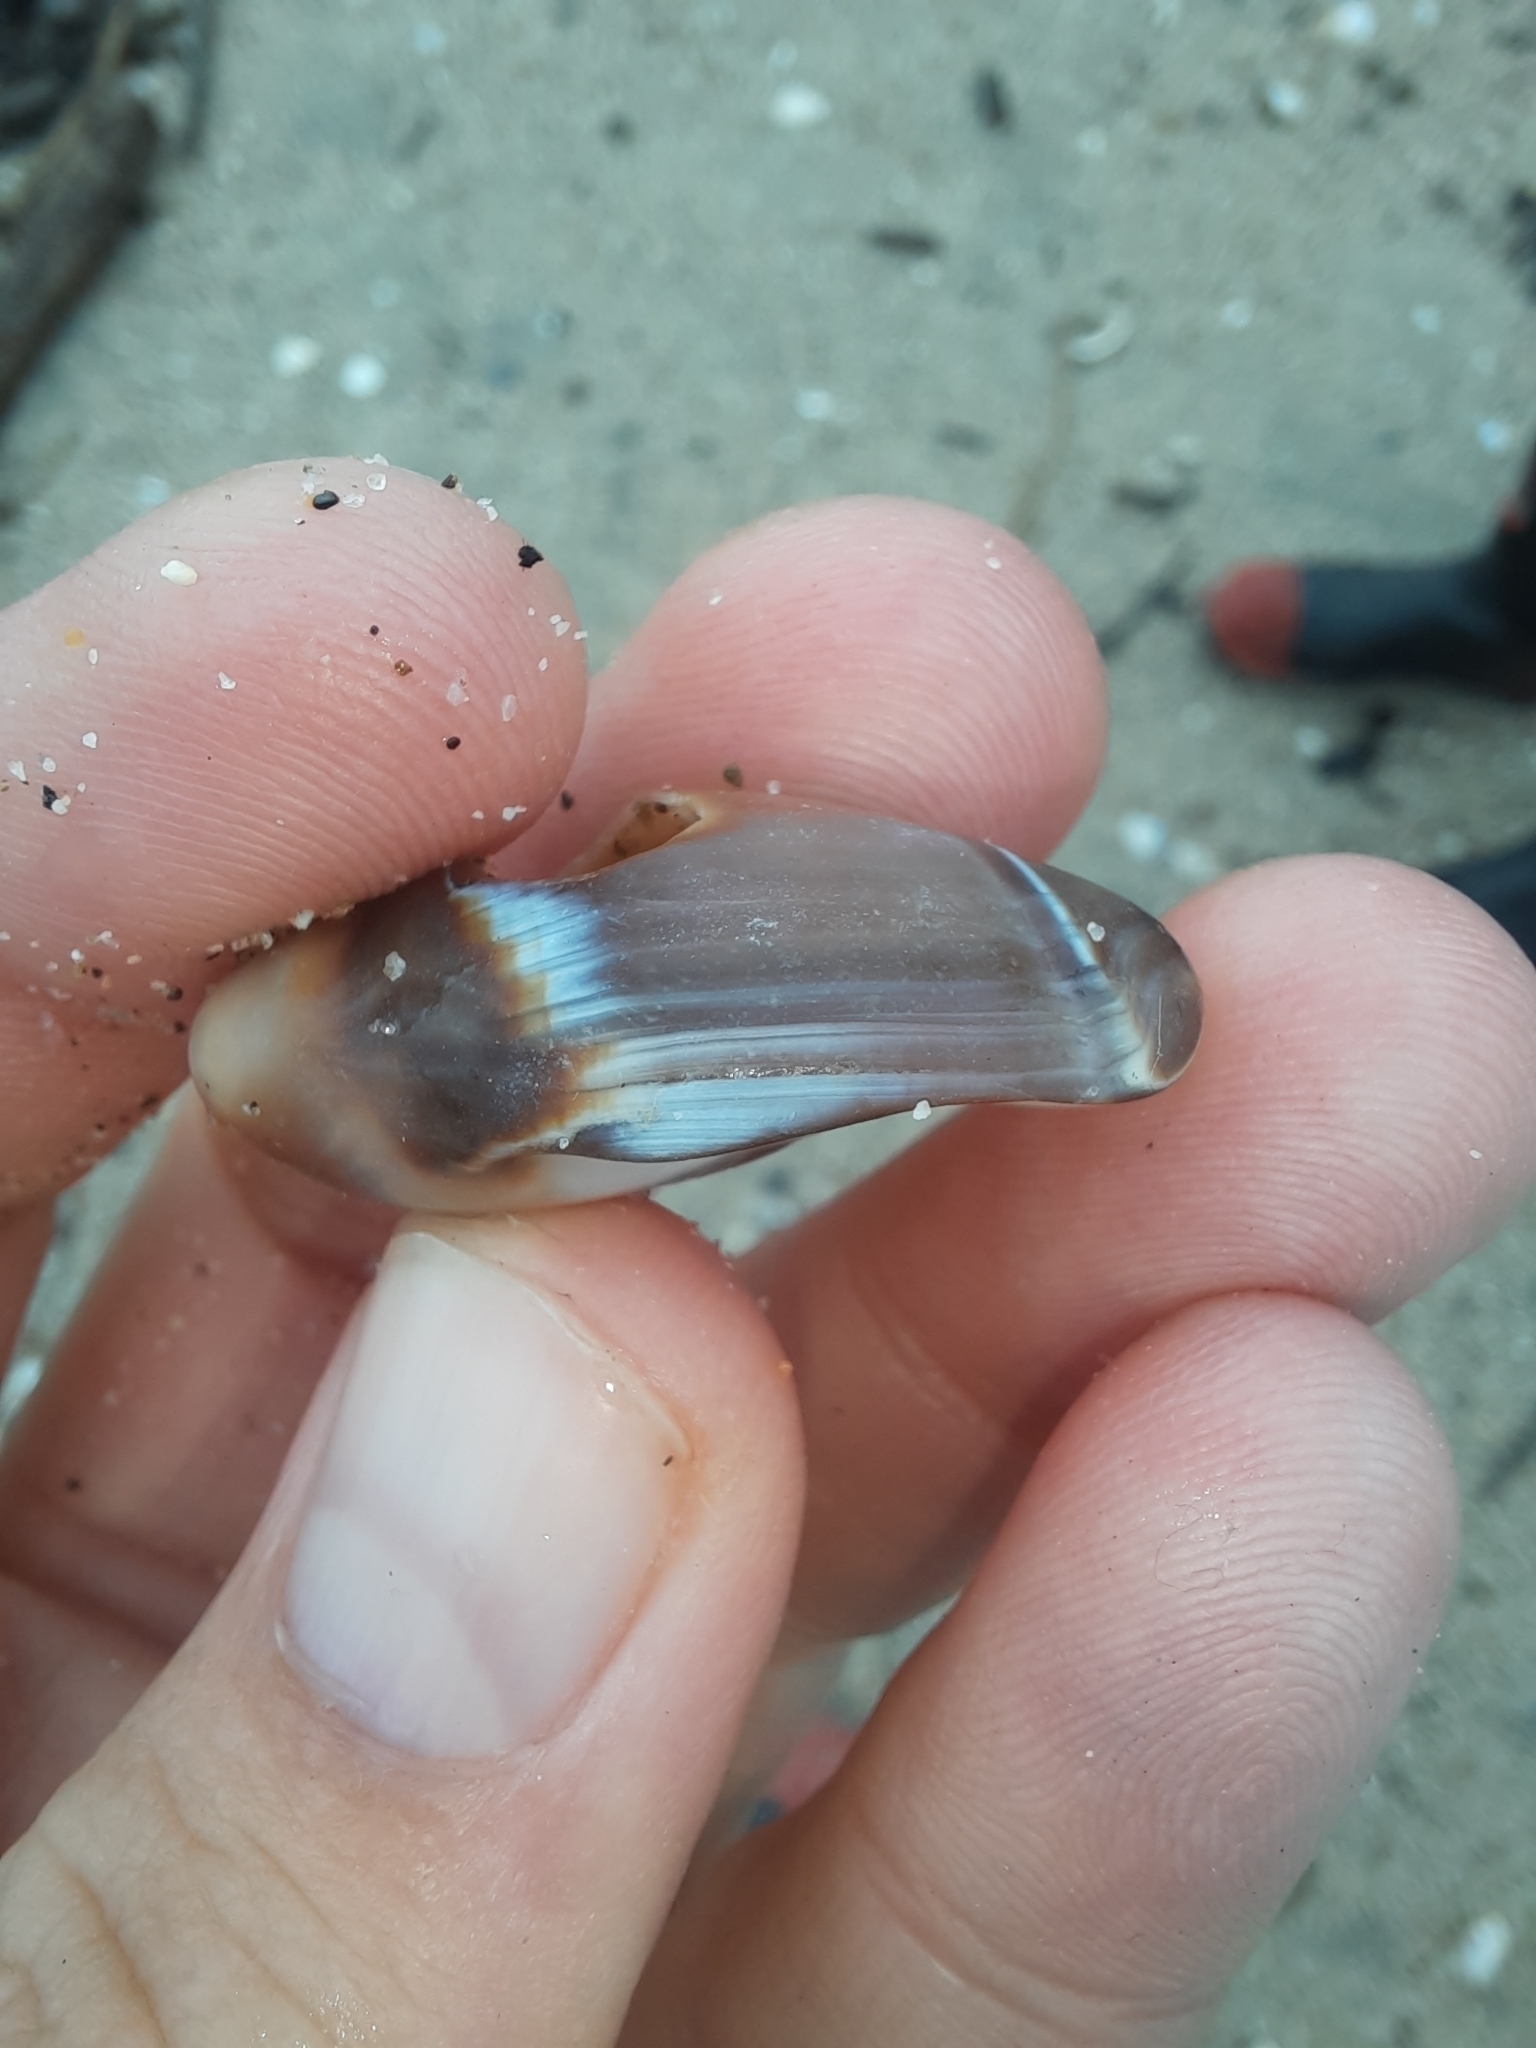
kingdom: Animalia
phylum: Mollusca
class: Gastropoda
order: Neogastropoda
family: Ancillariidae
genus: Amalda
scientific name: Amalda australis
